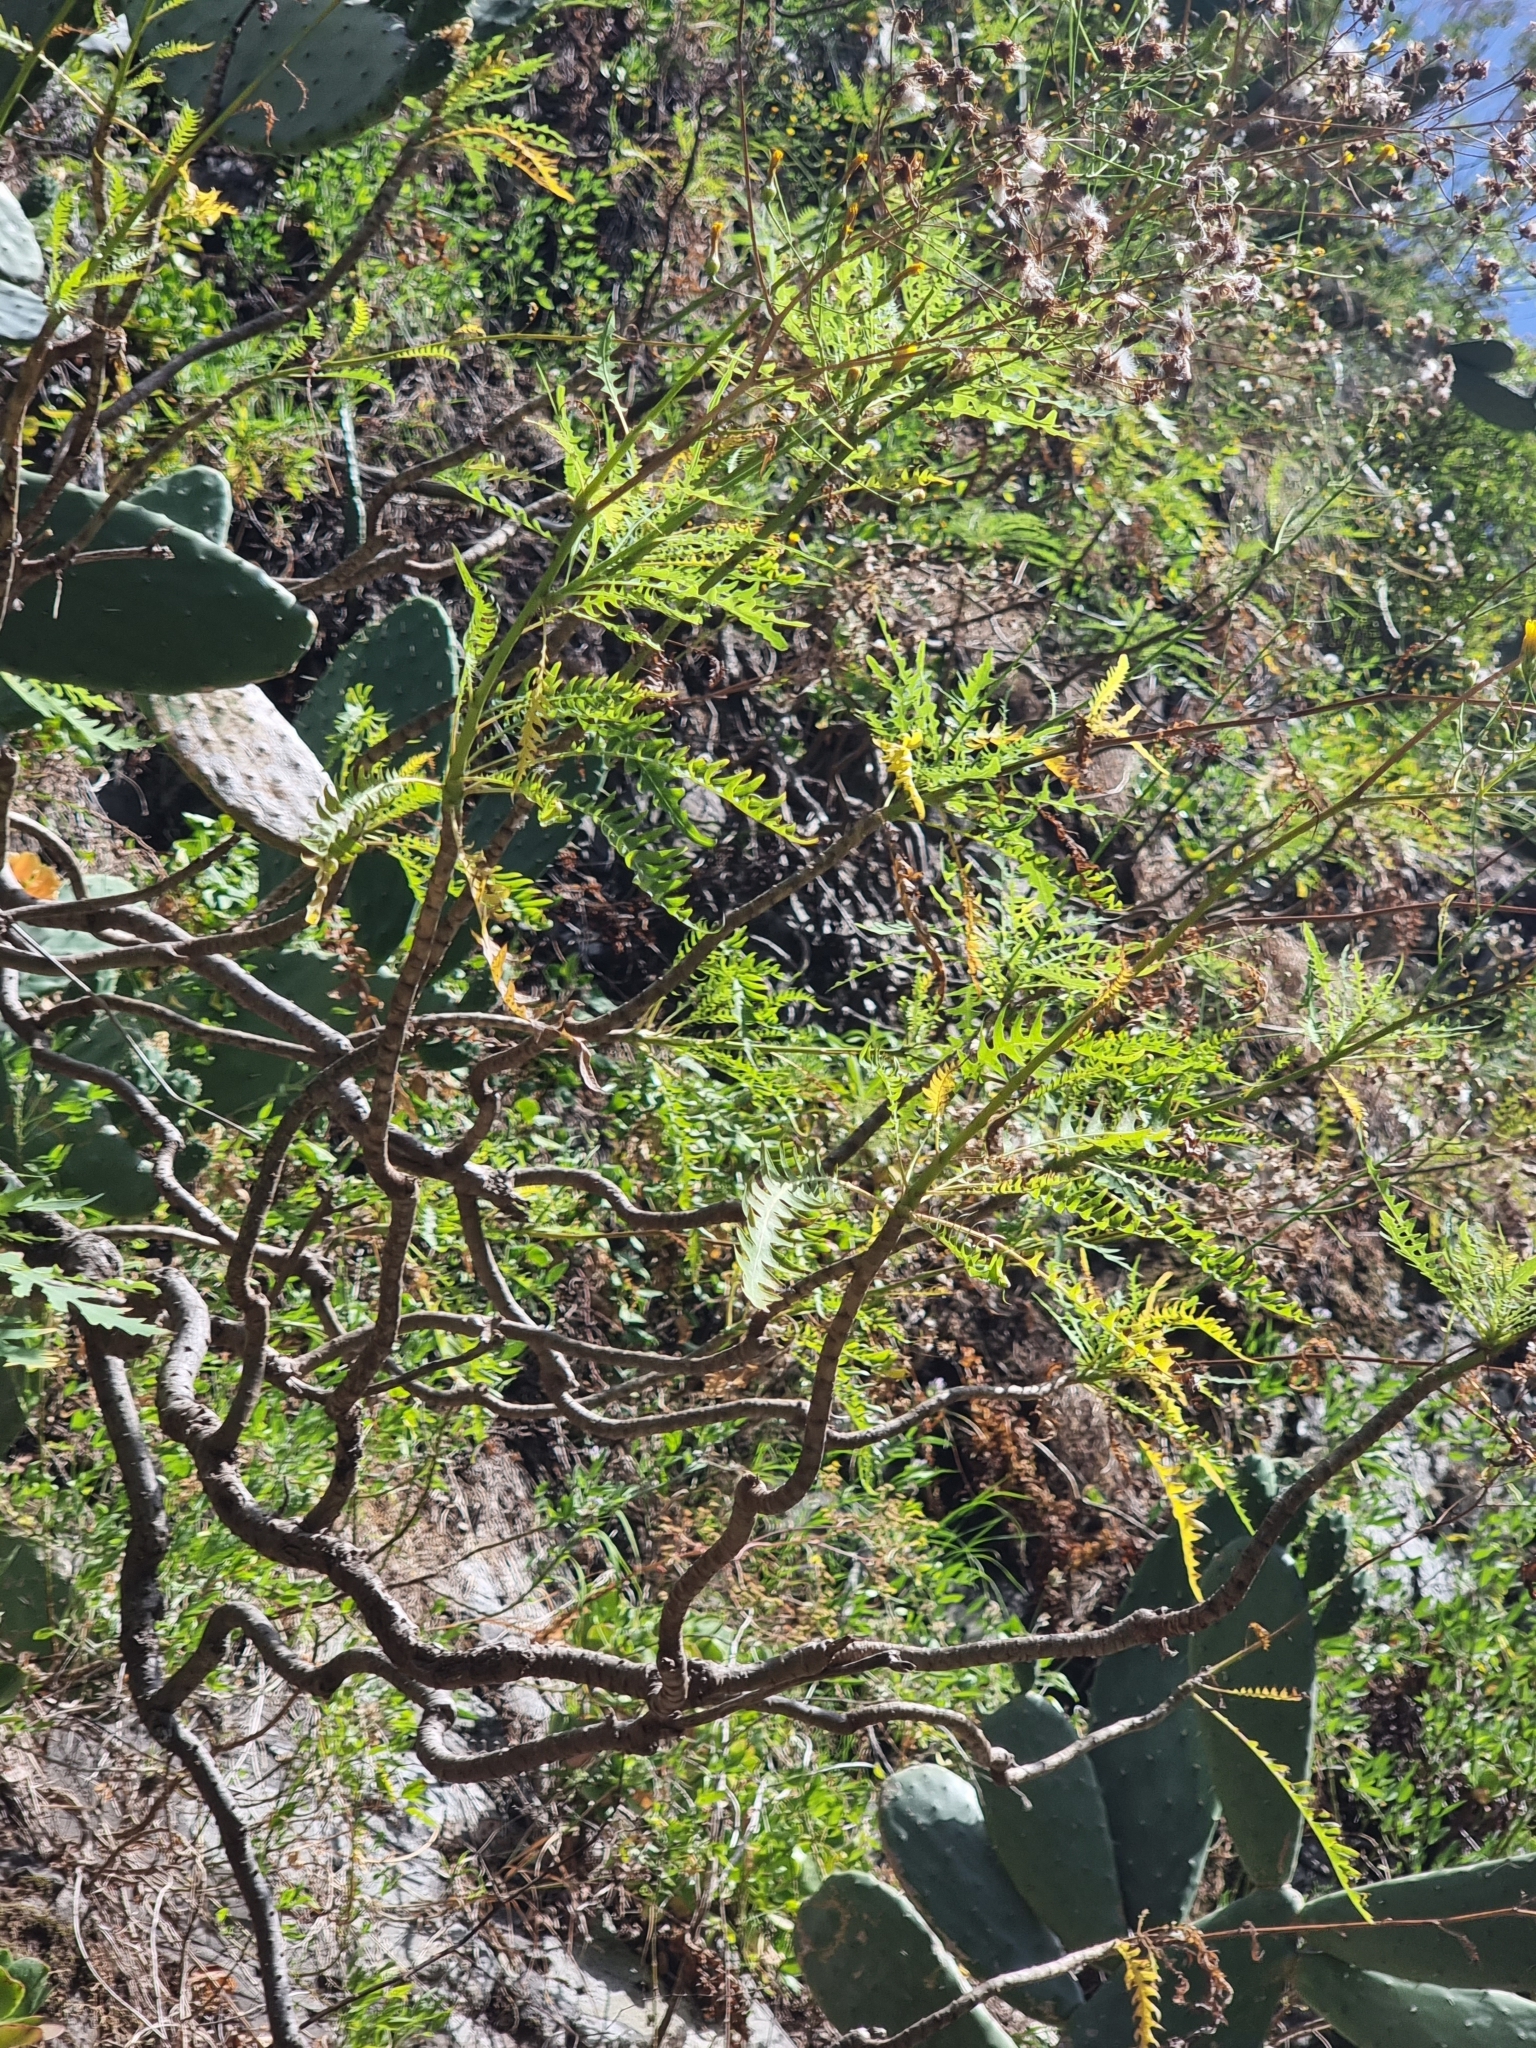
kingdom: Plantae
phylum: Tracheophyta
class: Magnoliopsida
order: Asterales
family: Asteraceae
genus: Sonchus
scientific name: Sonchus pinnatus
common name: Wing-leaved sow-thistle
